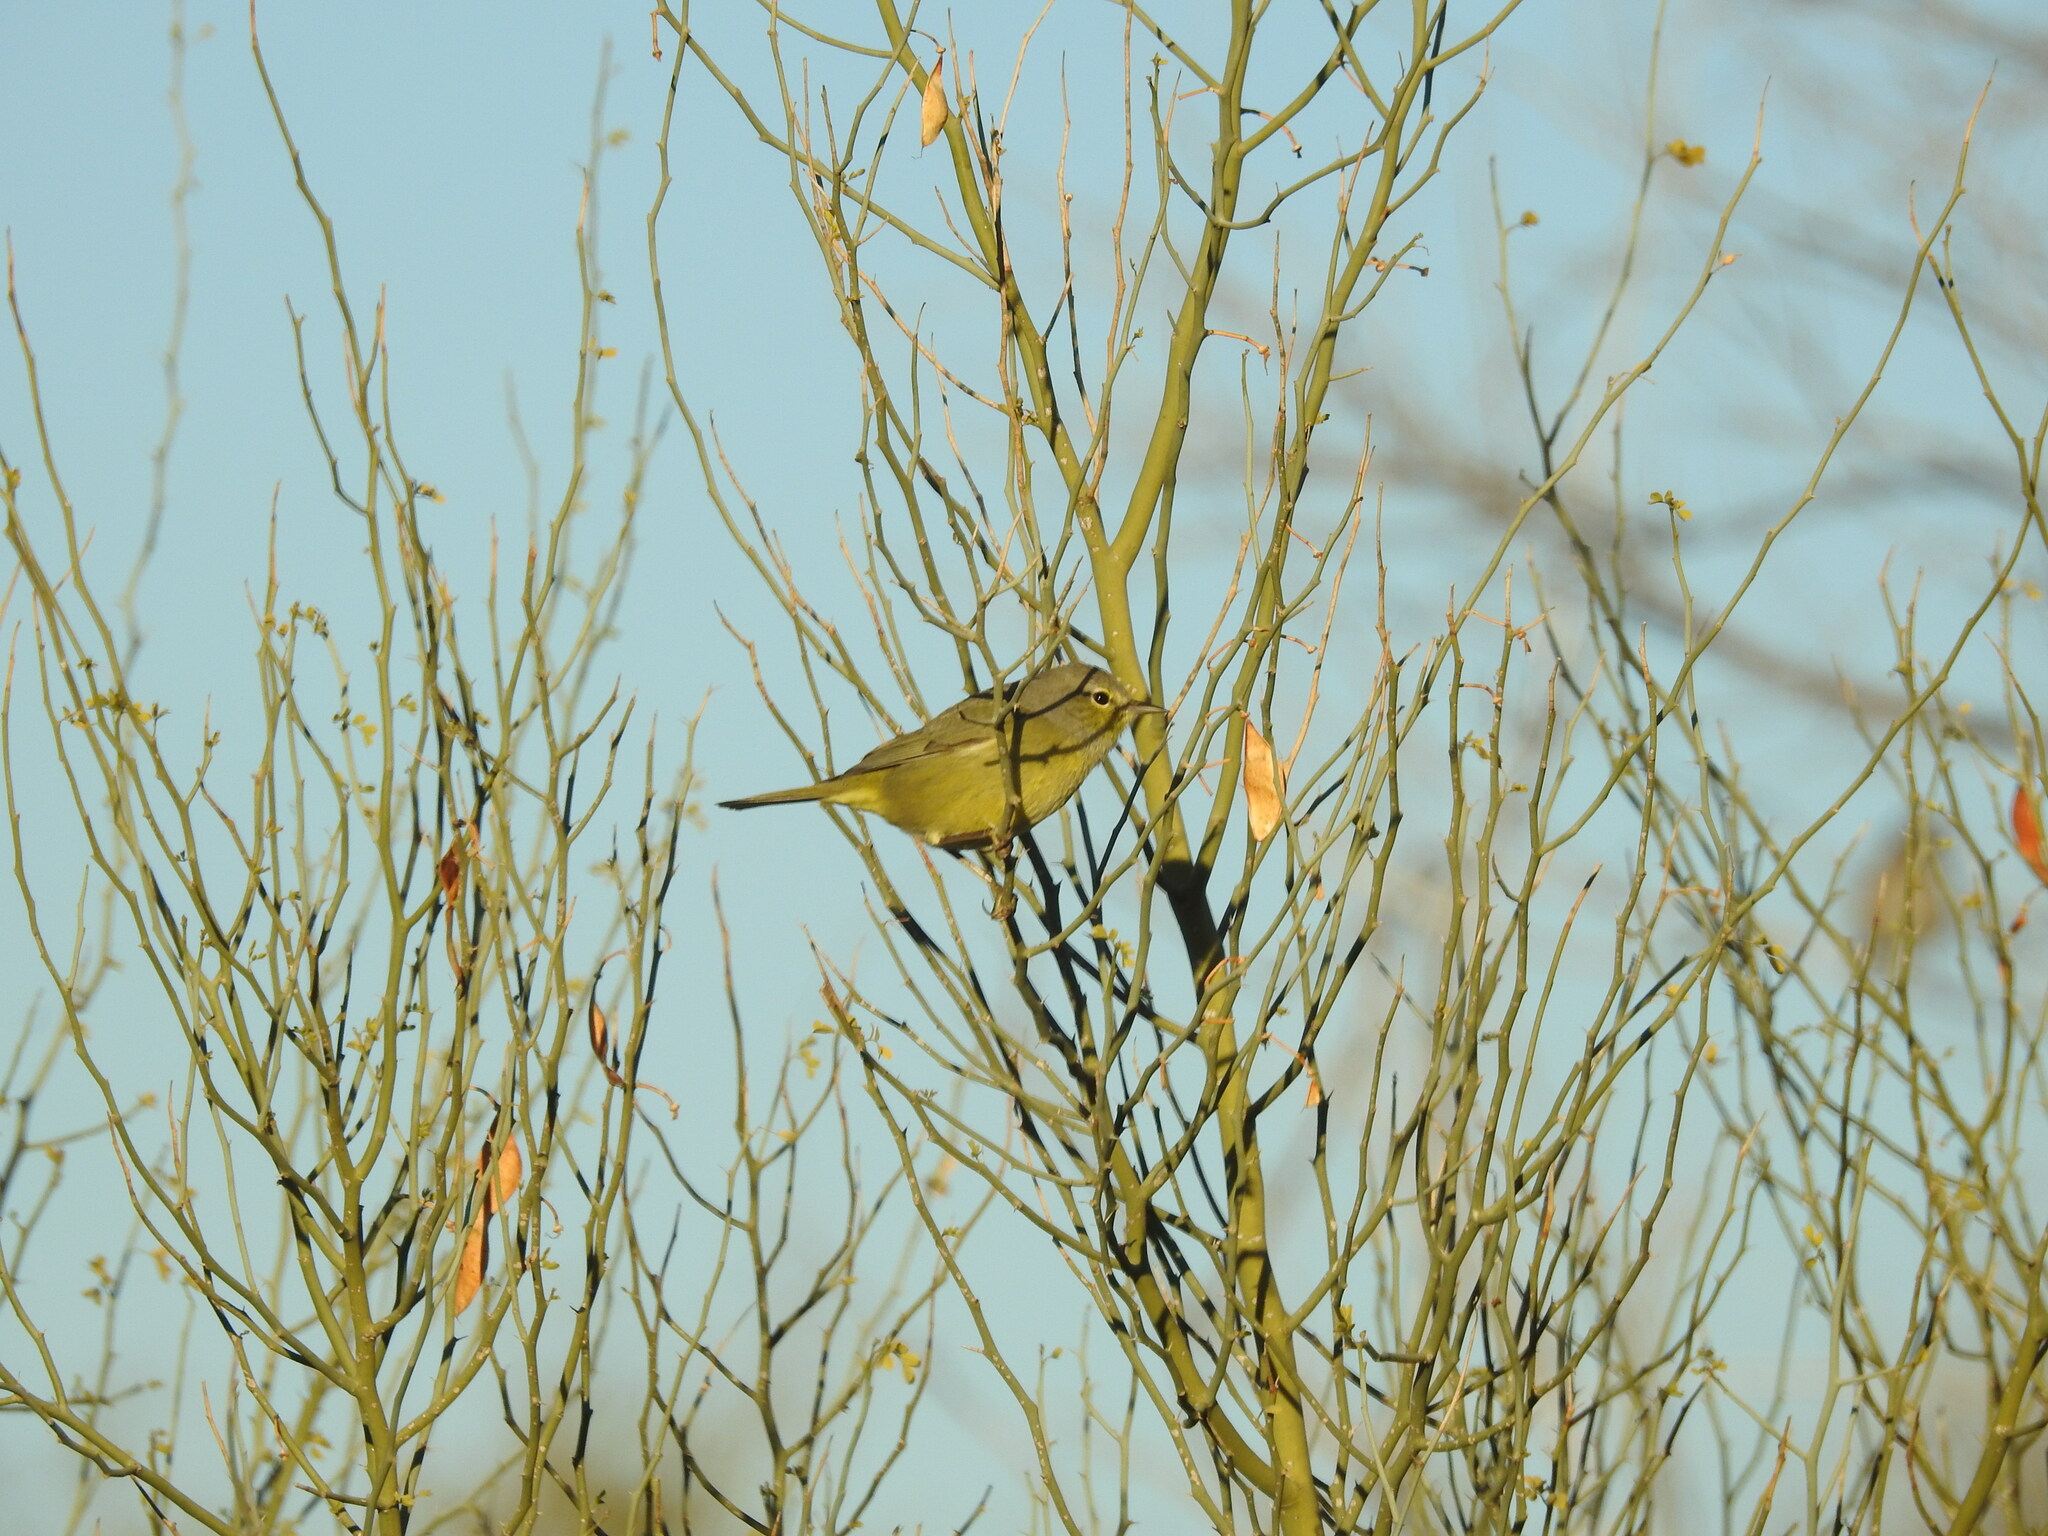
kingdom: Animalia
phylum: Chordata
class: Aves
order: Passeriformes
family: Parulidae
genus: Leiothlypis
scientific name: Leiothlypis celata
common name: Orange-crowned warbler
